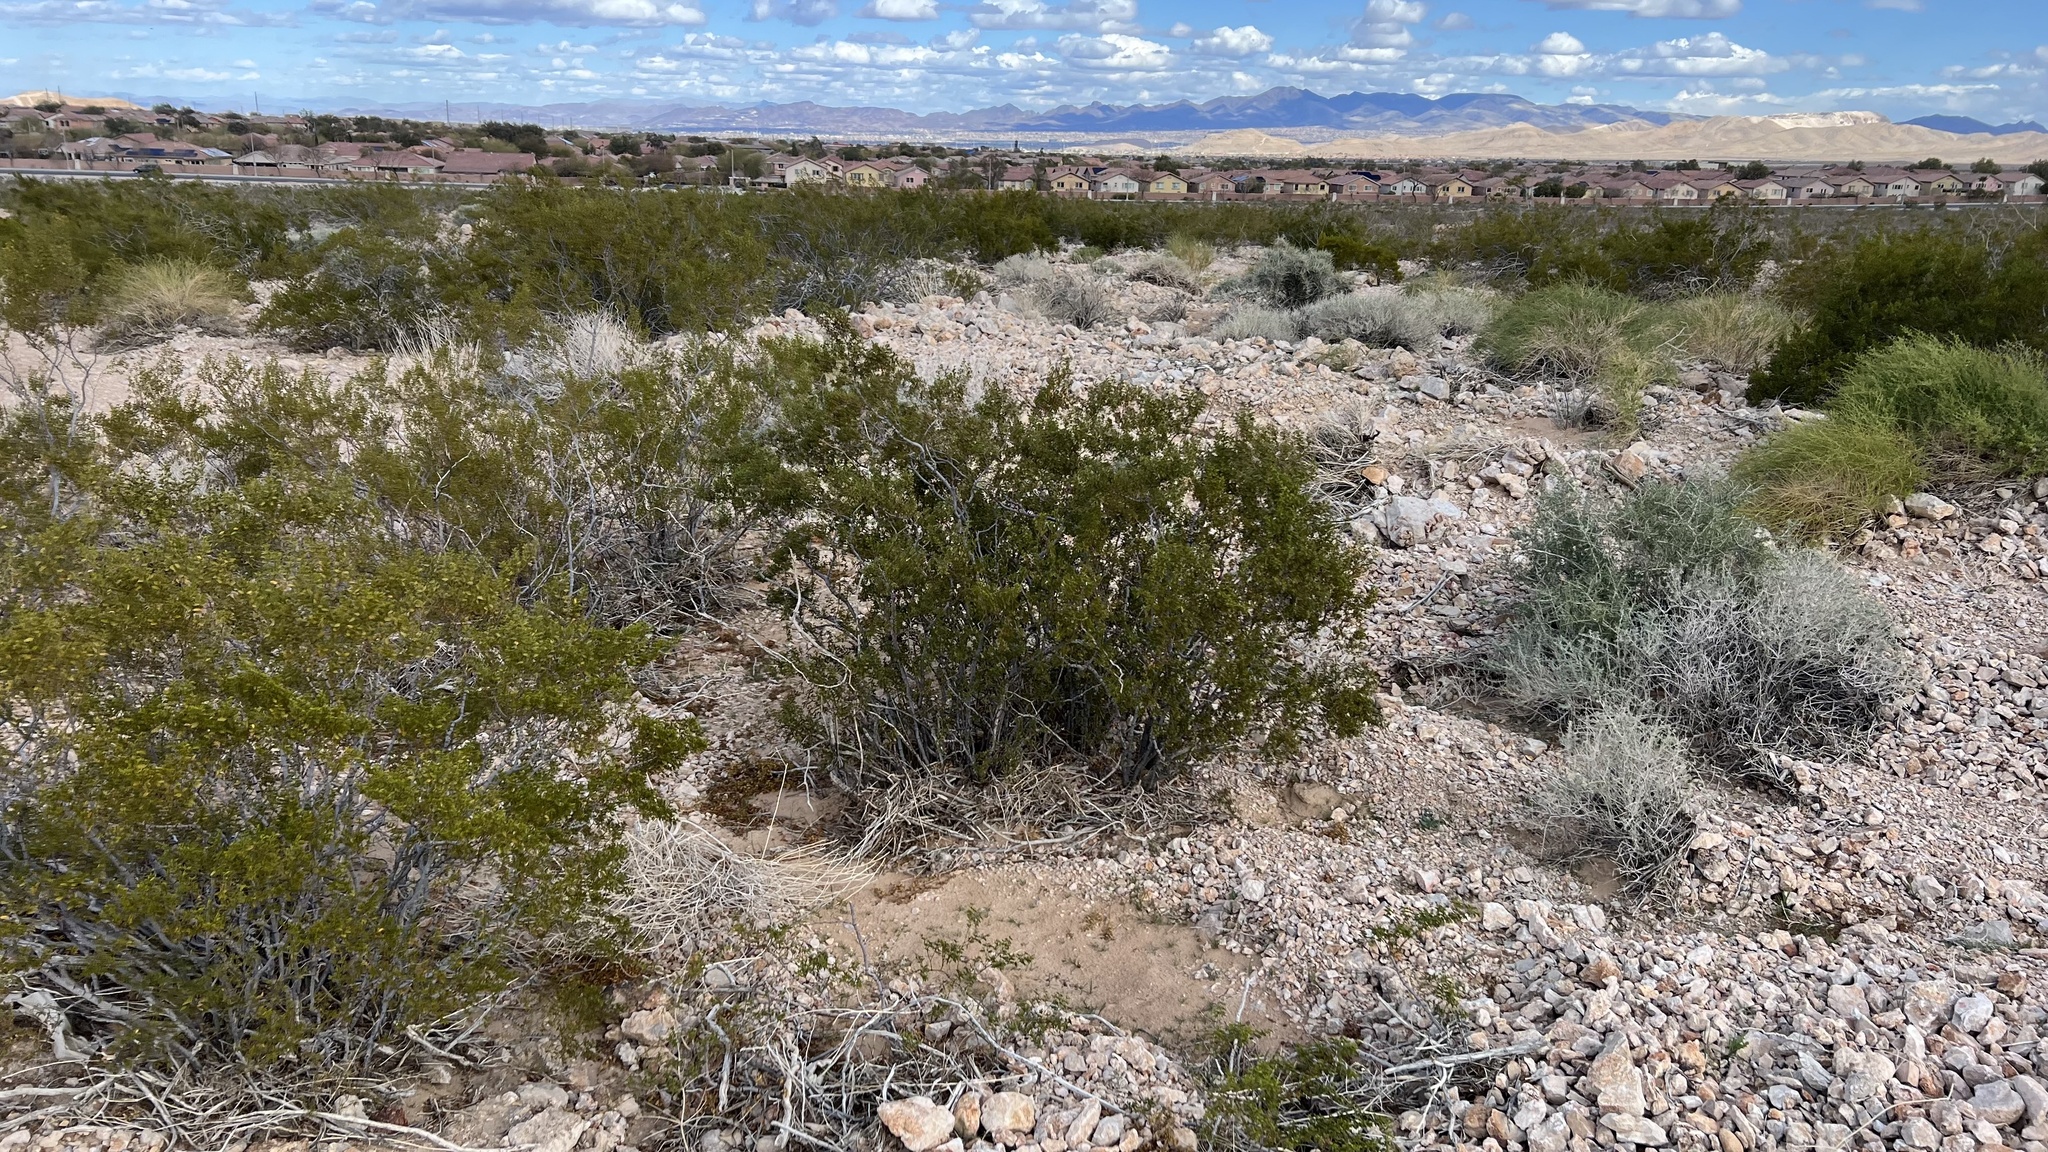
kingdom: Plantae
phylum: Tracheophyta
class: Magnoliopsida
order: Zygophyllales
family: Zygophyllaceae
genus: Larrea
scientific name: Larrea tridentata
